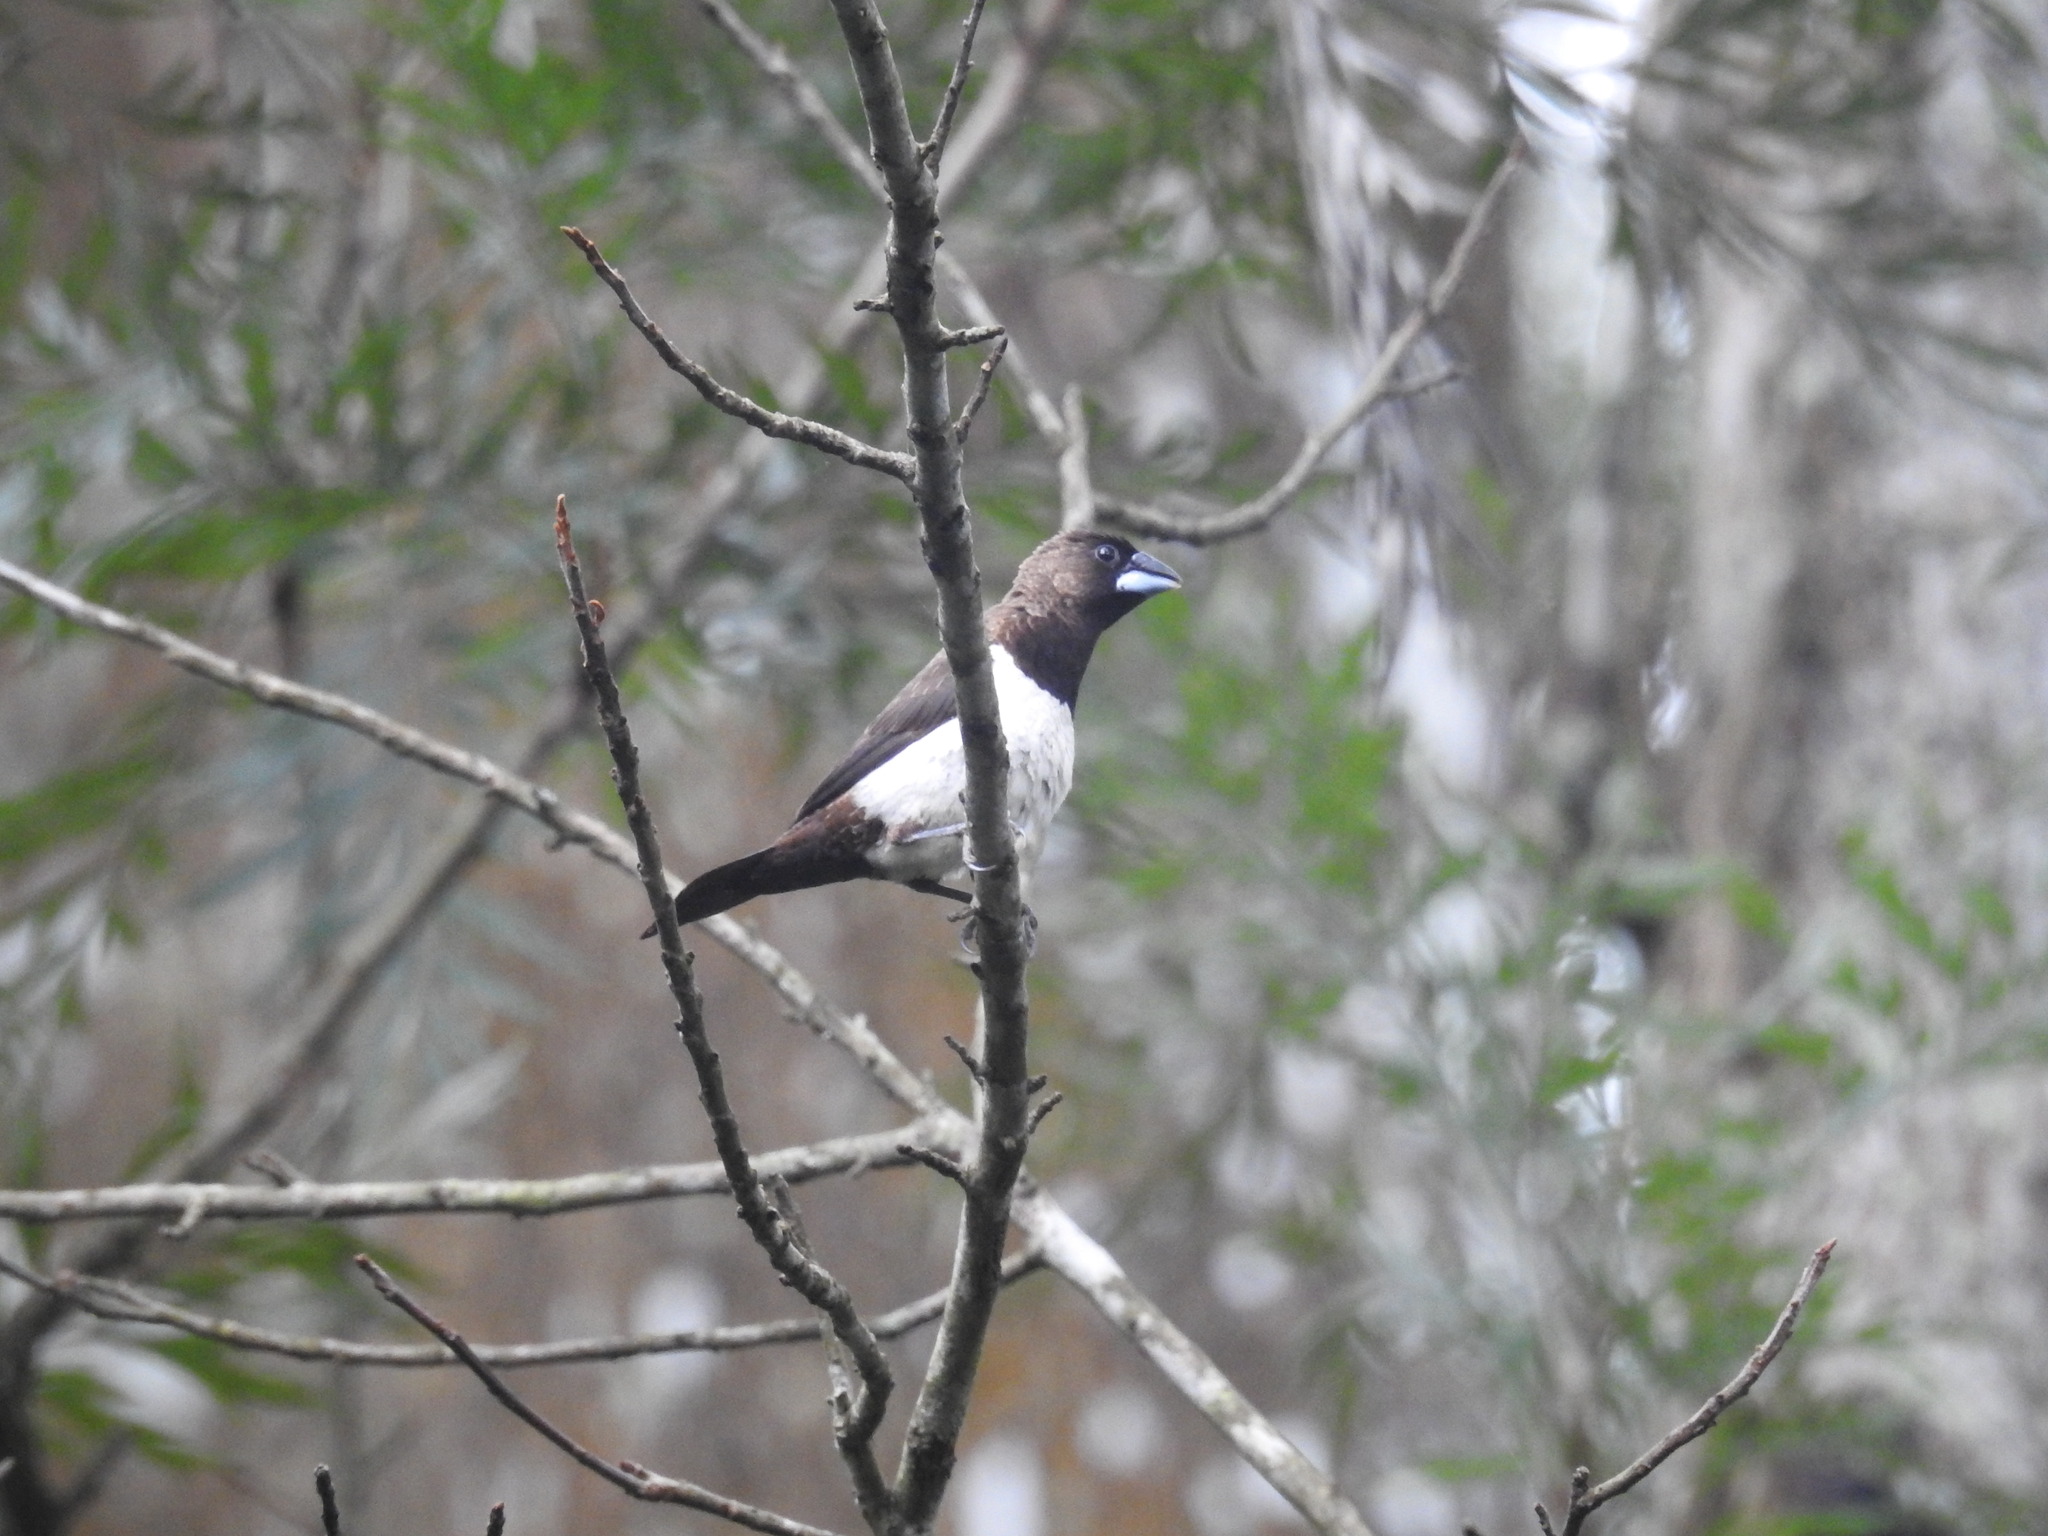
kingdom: Animalia
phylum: Chordata
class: Aves
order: Passeriformes
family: Estrildidae
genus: Lonchura
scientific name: Lonchura striata
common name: White-rumped munia
